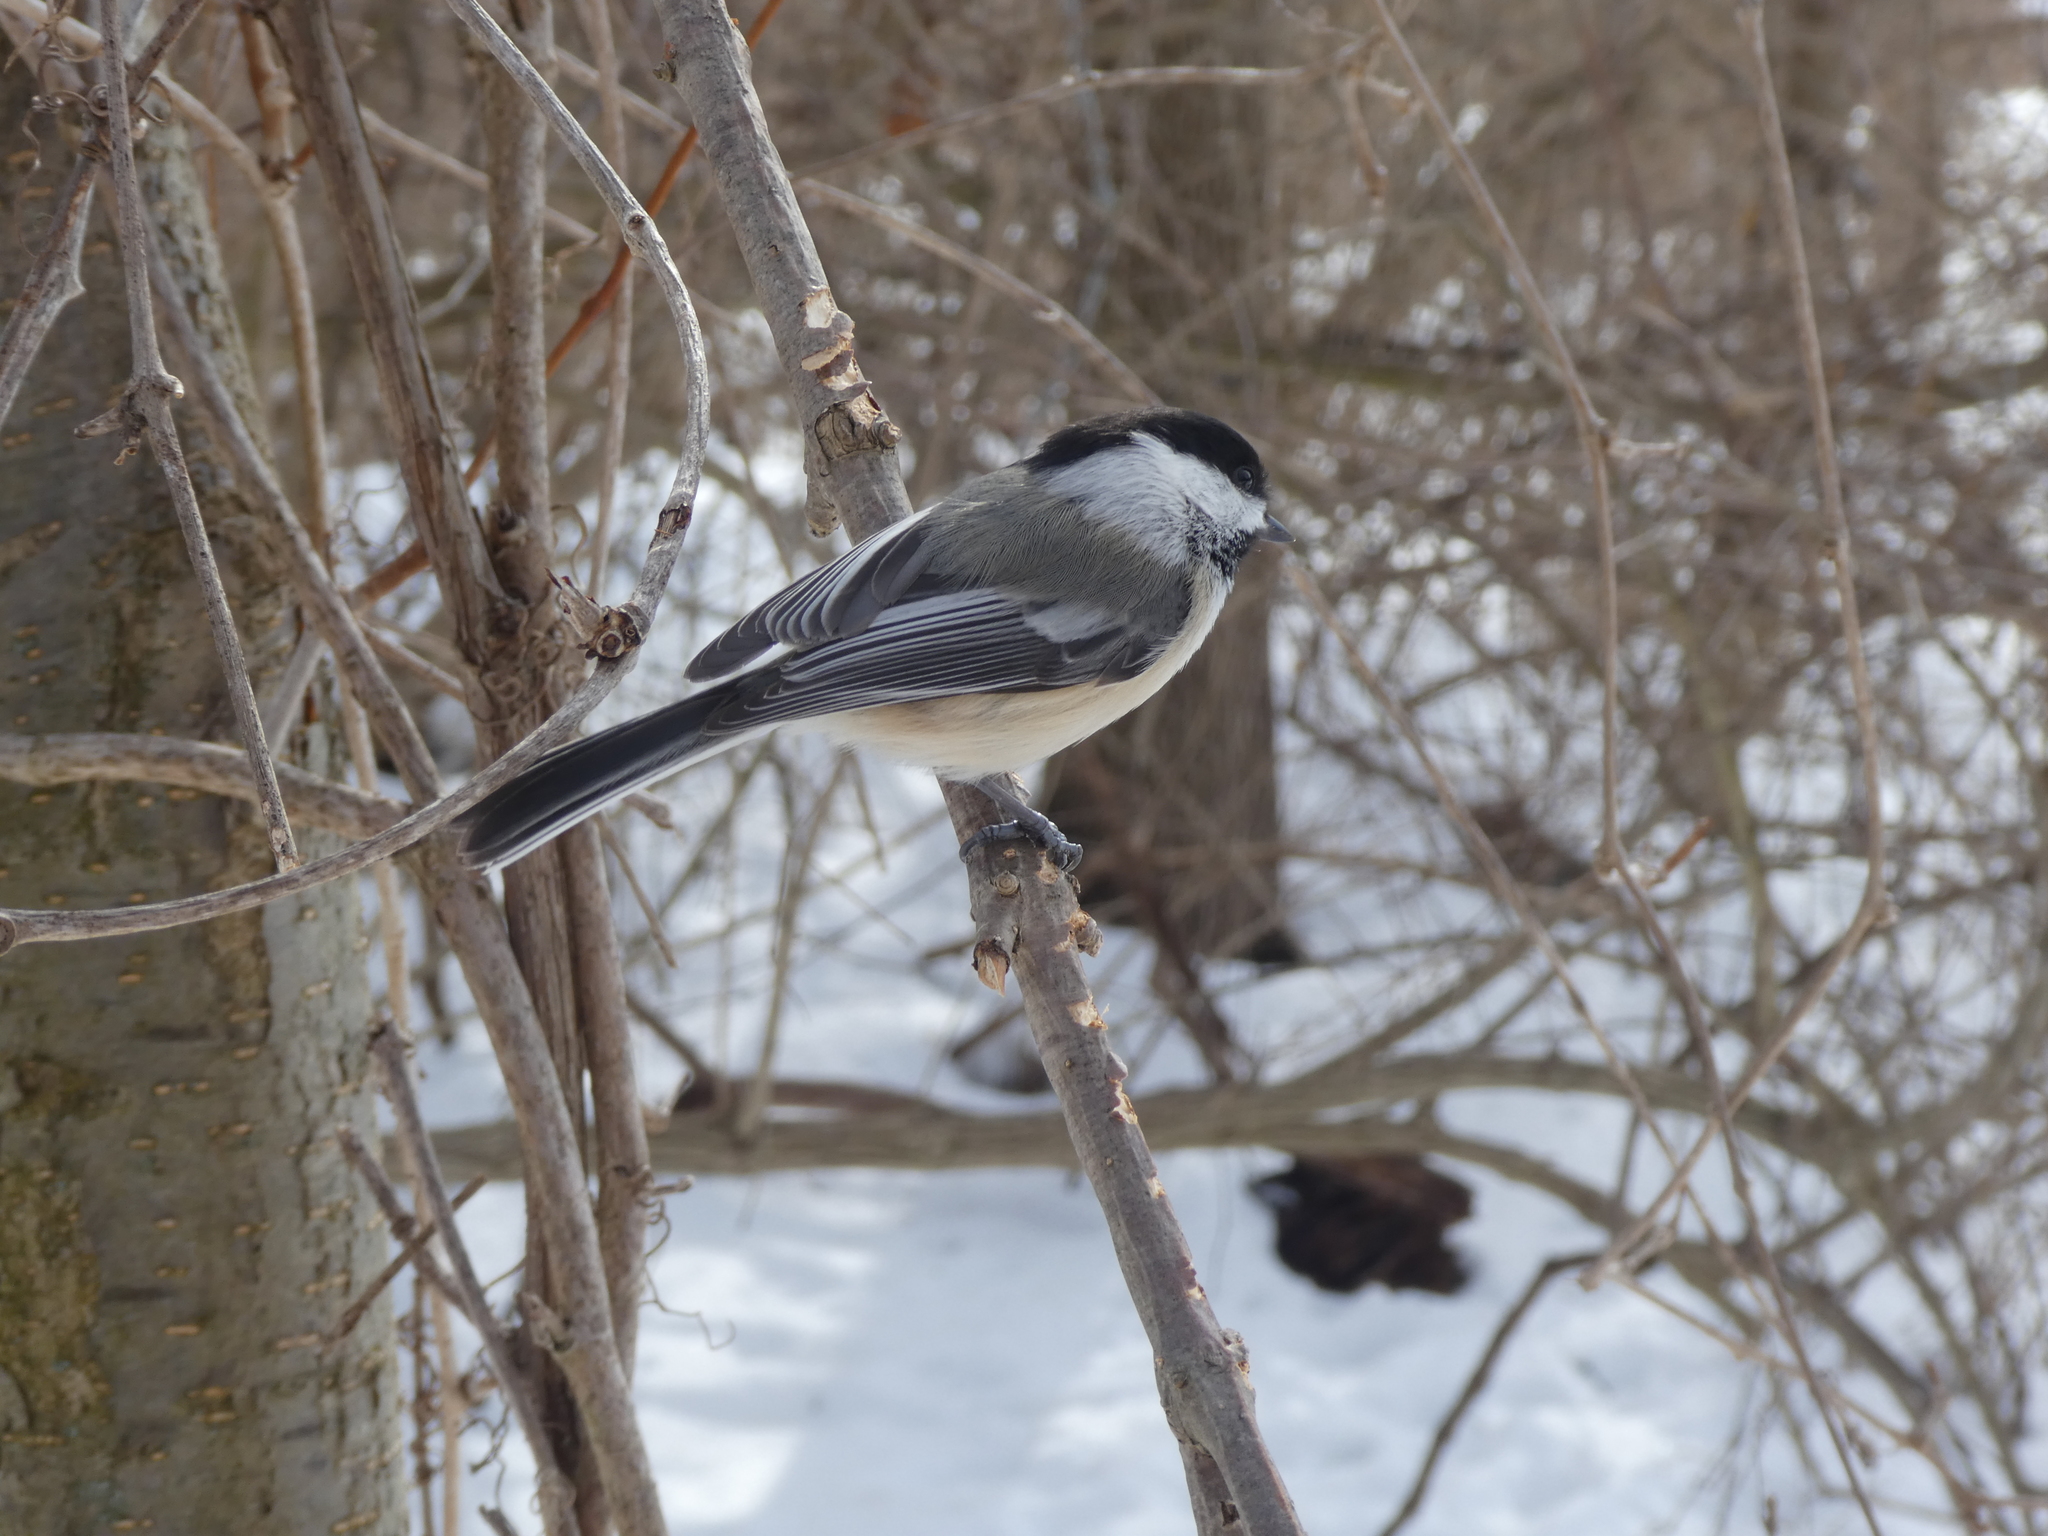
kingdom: Animalia
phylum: Chordata
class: Aves
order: Passeriformes
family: Paridae
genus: Poecile
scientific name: Poecile atricapillus
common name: Black-capped chickadee
